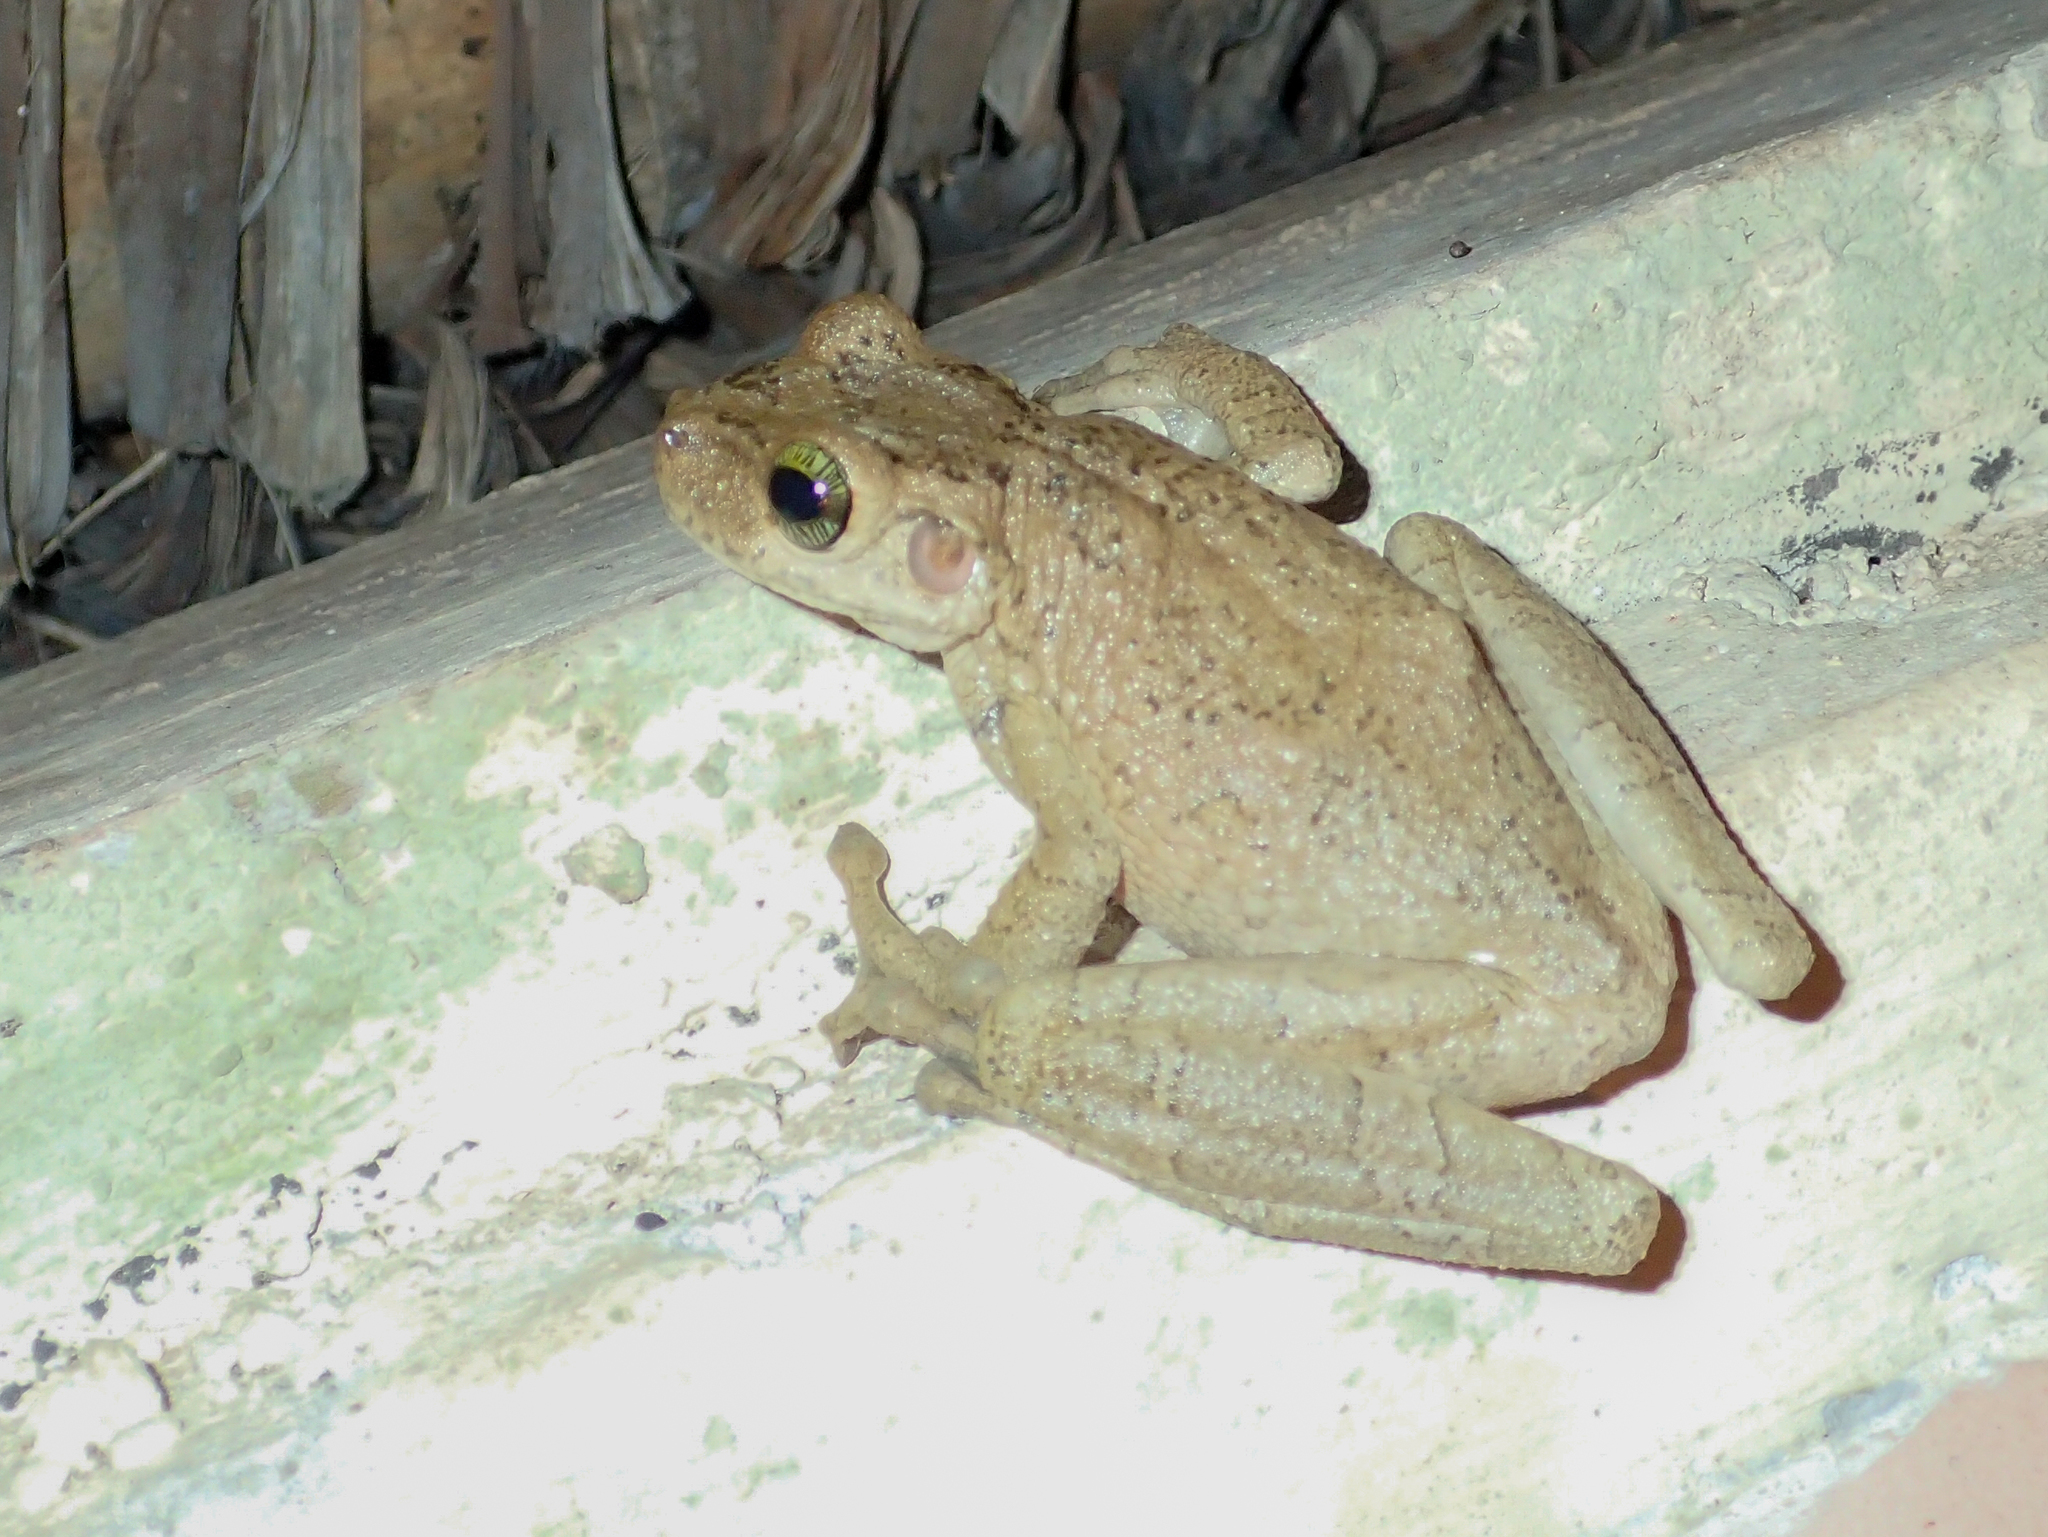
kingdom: Animalia
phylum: Chordata
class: Amphibia
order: Anura
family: Hylidae
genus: Osteocephalus
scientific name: Osteocephalus taurinus
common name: Manaus slender-legged treefrog
